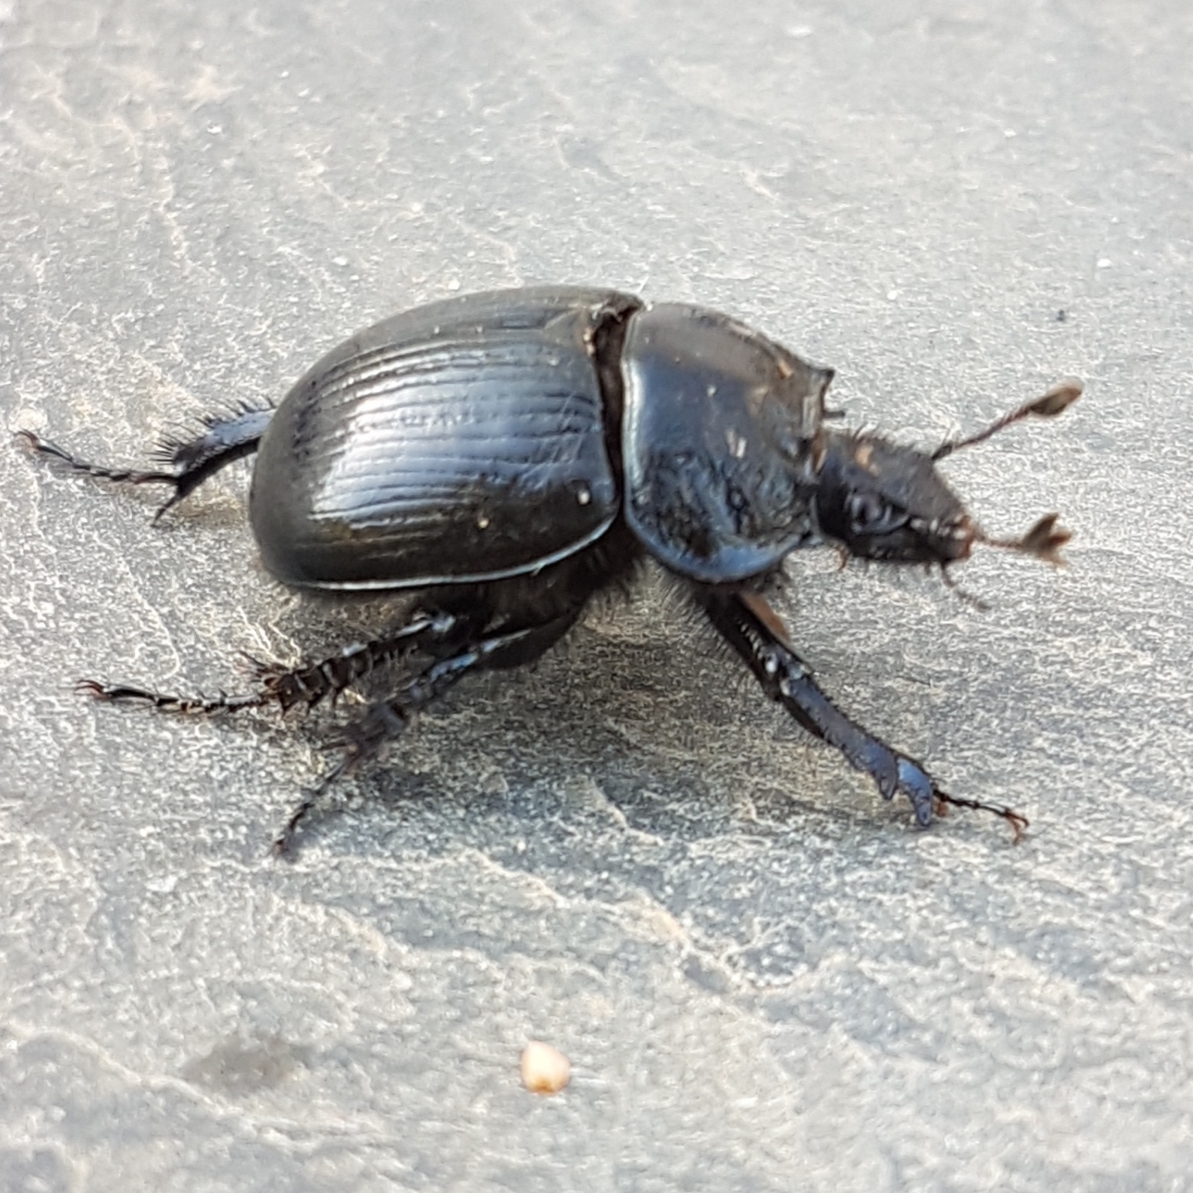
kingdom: Animalia
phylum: Arthropoda
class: Insecta
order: Coleoptera
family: Geotrupidae
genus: Typhaeus
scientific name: Typhaeus typhoeus
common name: Minotaur beetle
